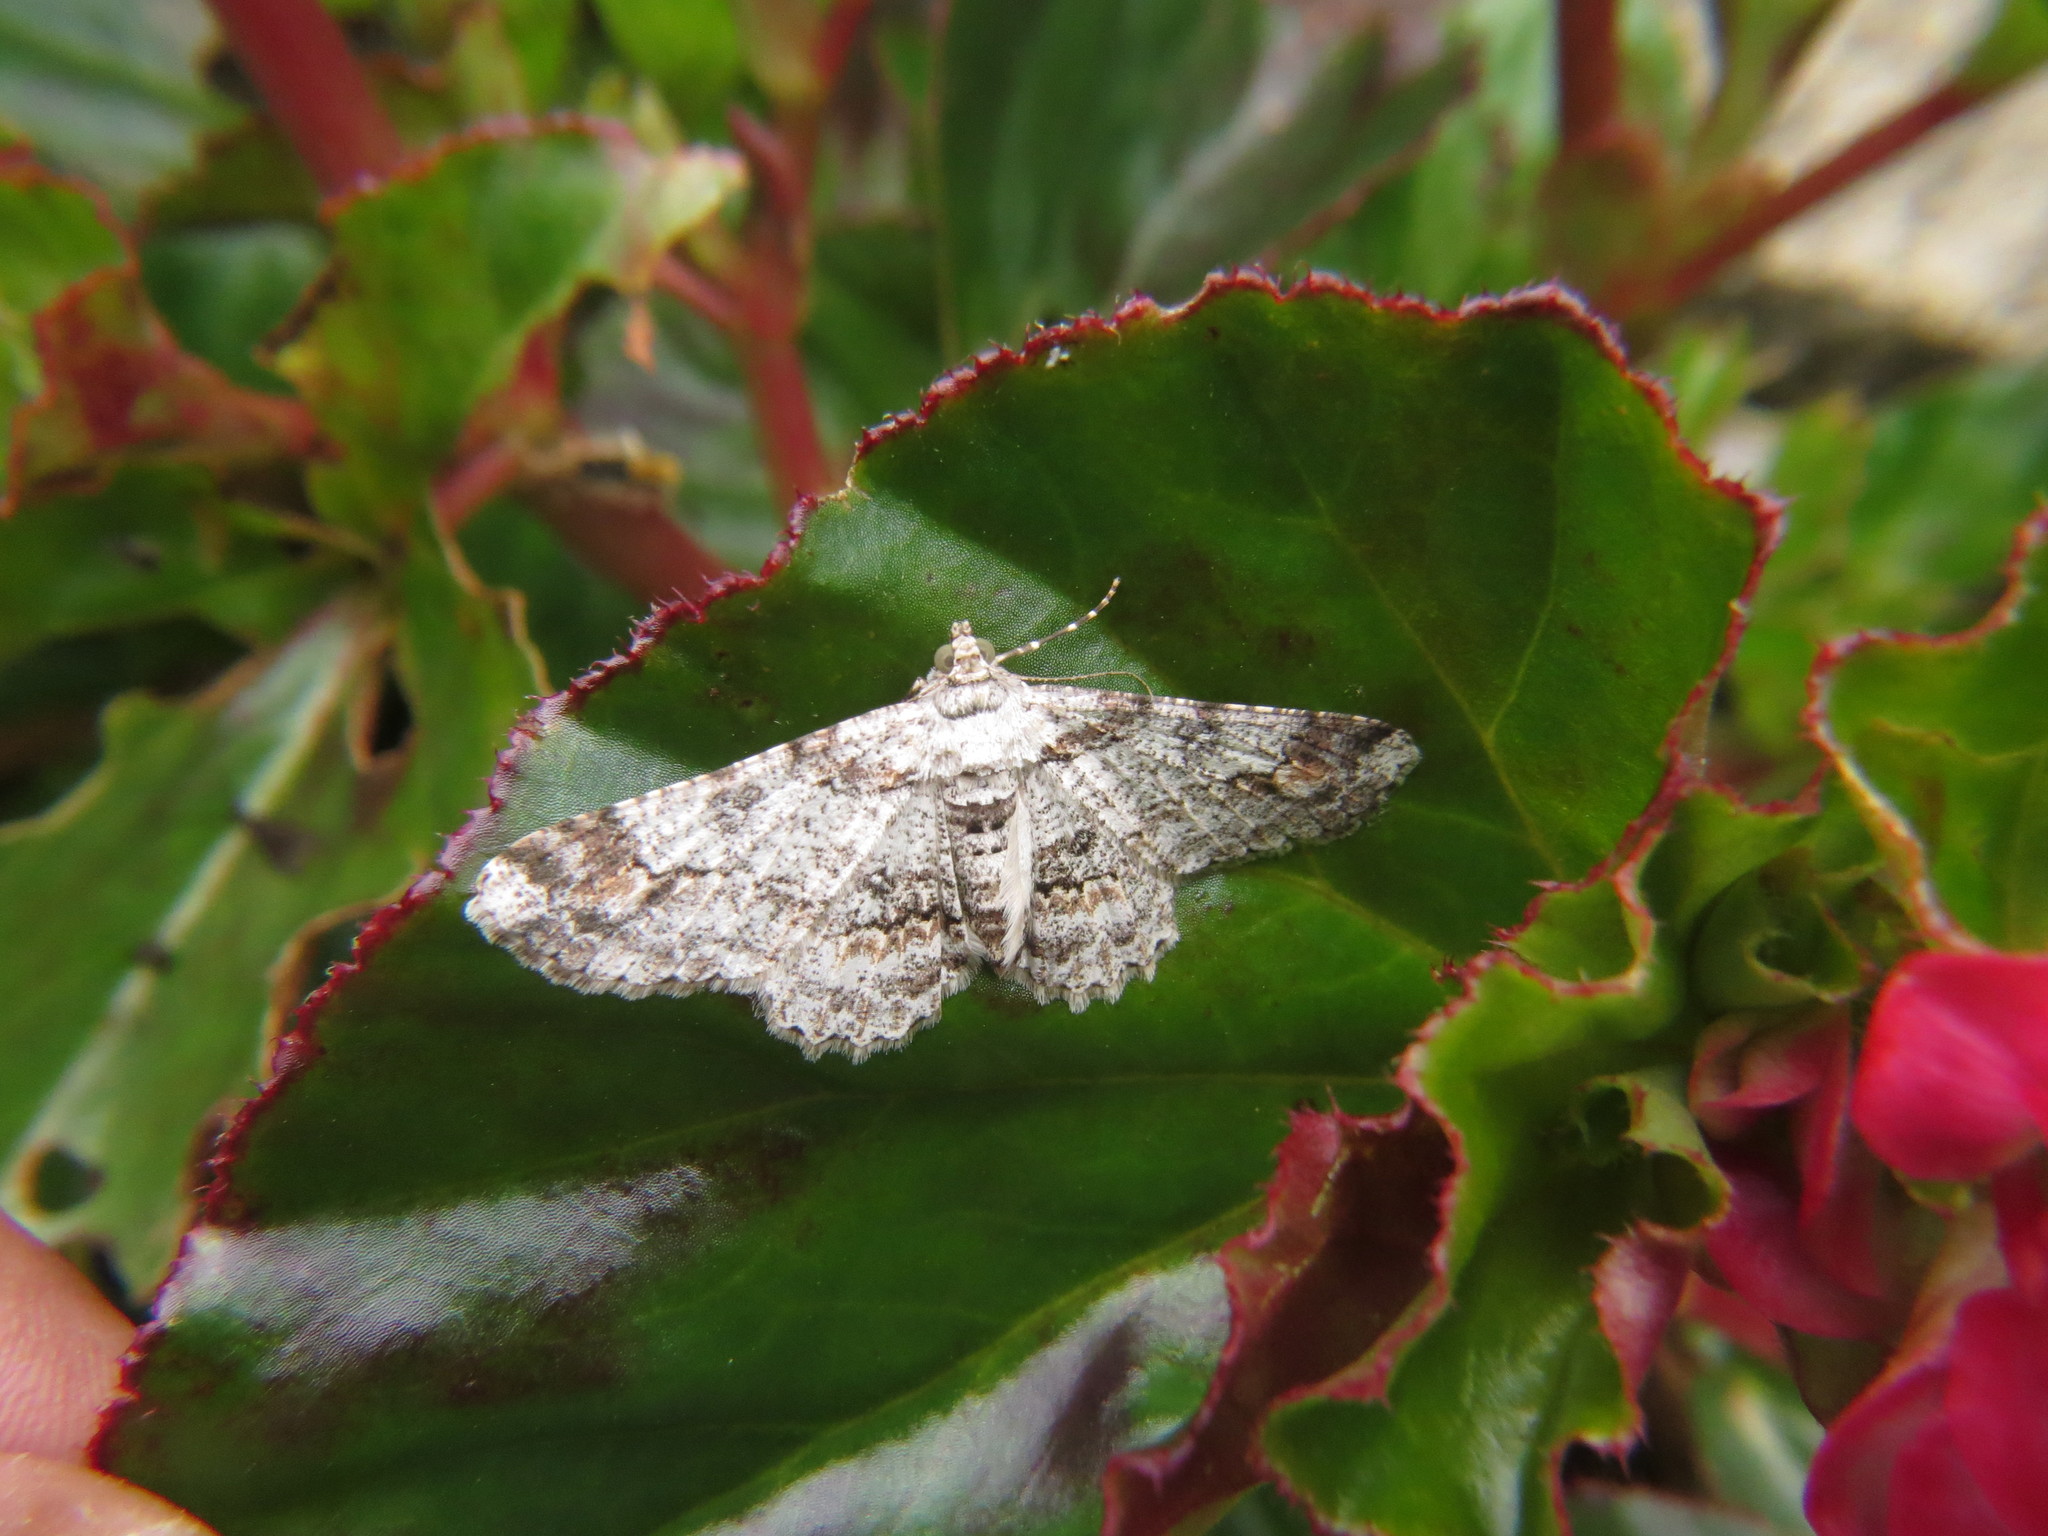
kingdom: Animalia
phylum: Arthropoda
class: Insecta
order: Lepidoptera
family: Geometridae
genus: Cleora
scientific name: Cleora concentraria
